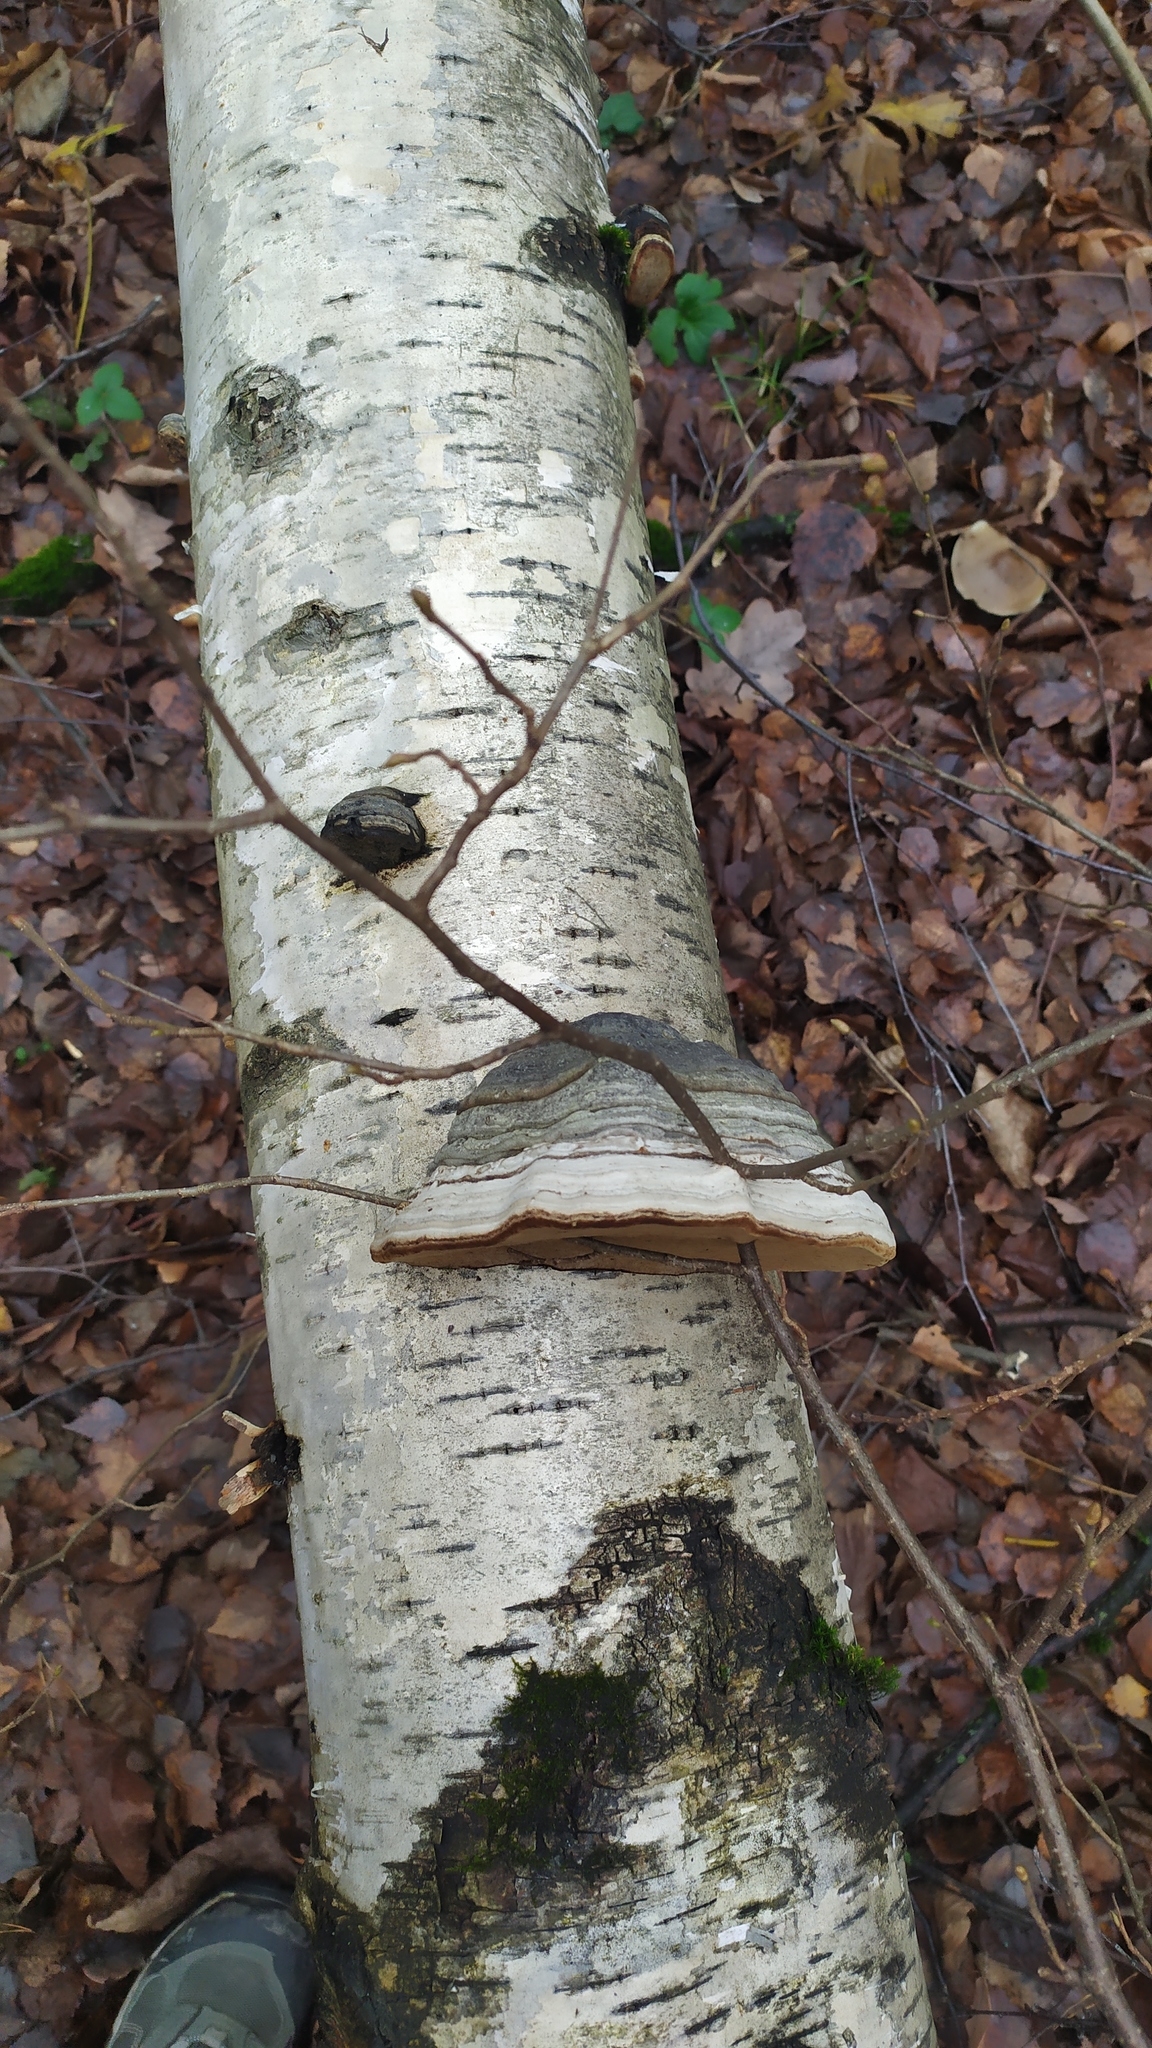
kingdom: Fungi
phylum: Basidiomycota
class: Agaricomycetes
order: Polyporales
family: Polyporaceae
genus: Fomes
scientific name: Fomes fomentarius
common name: Hoof fungus
